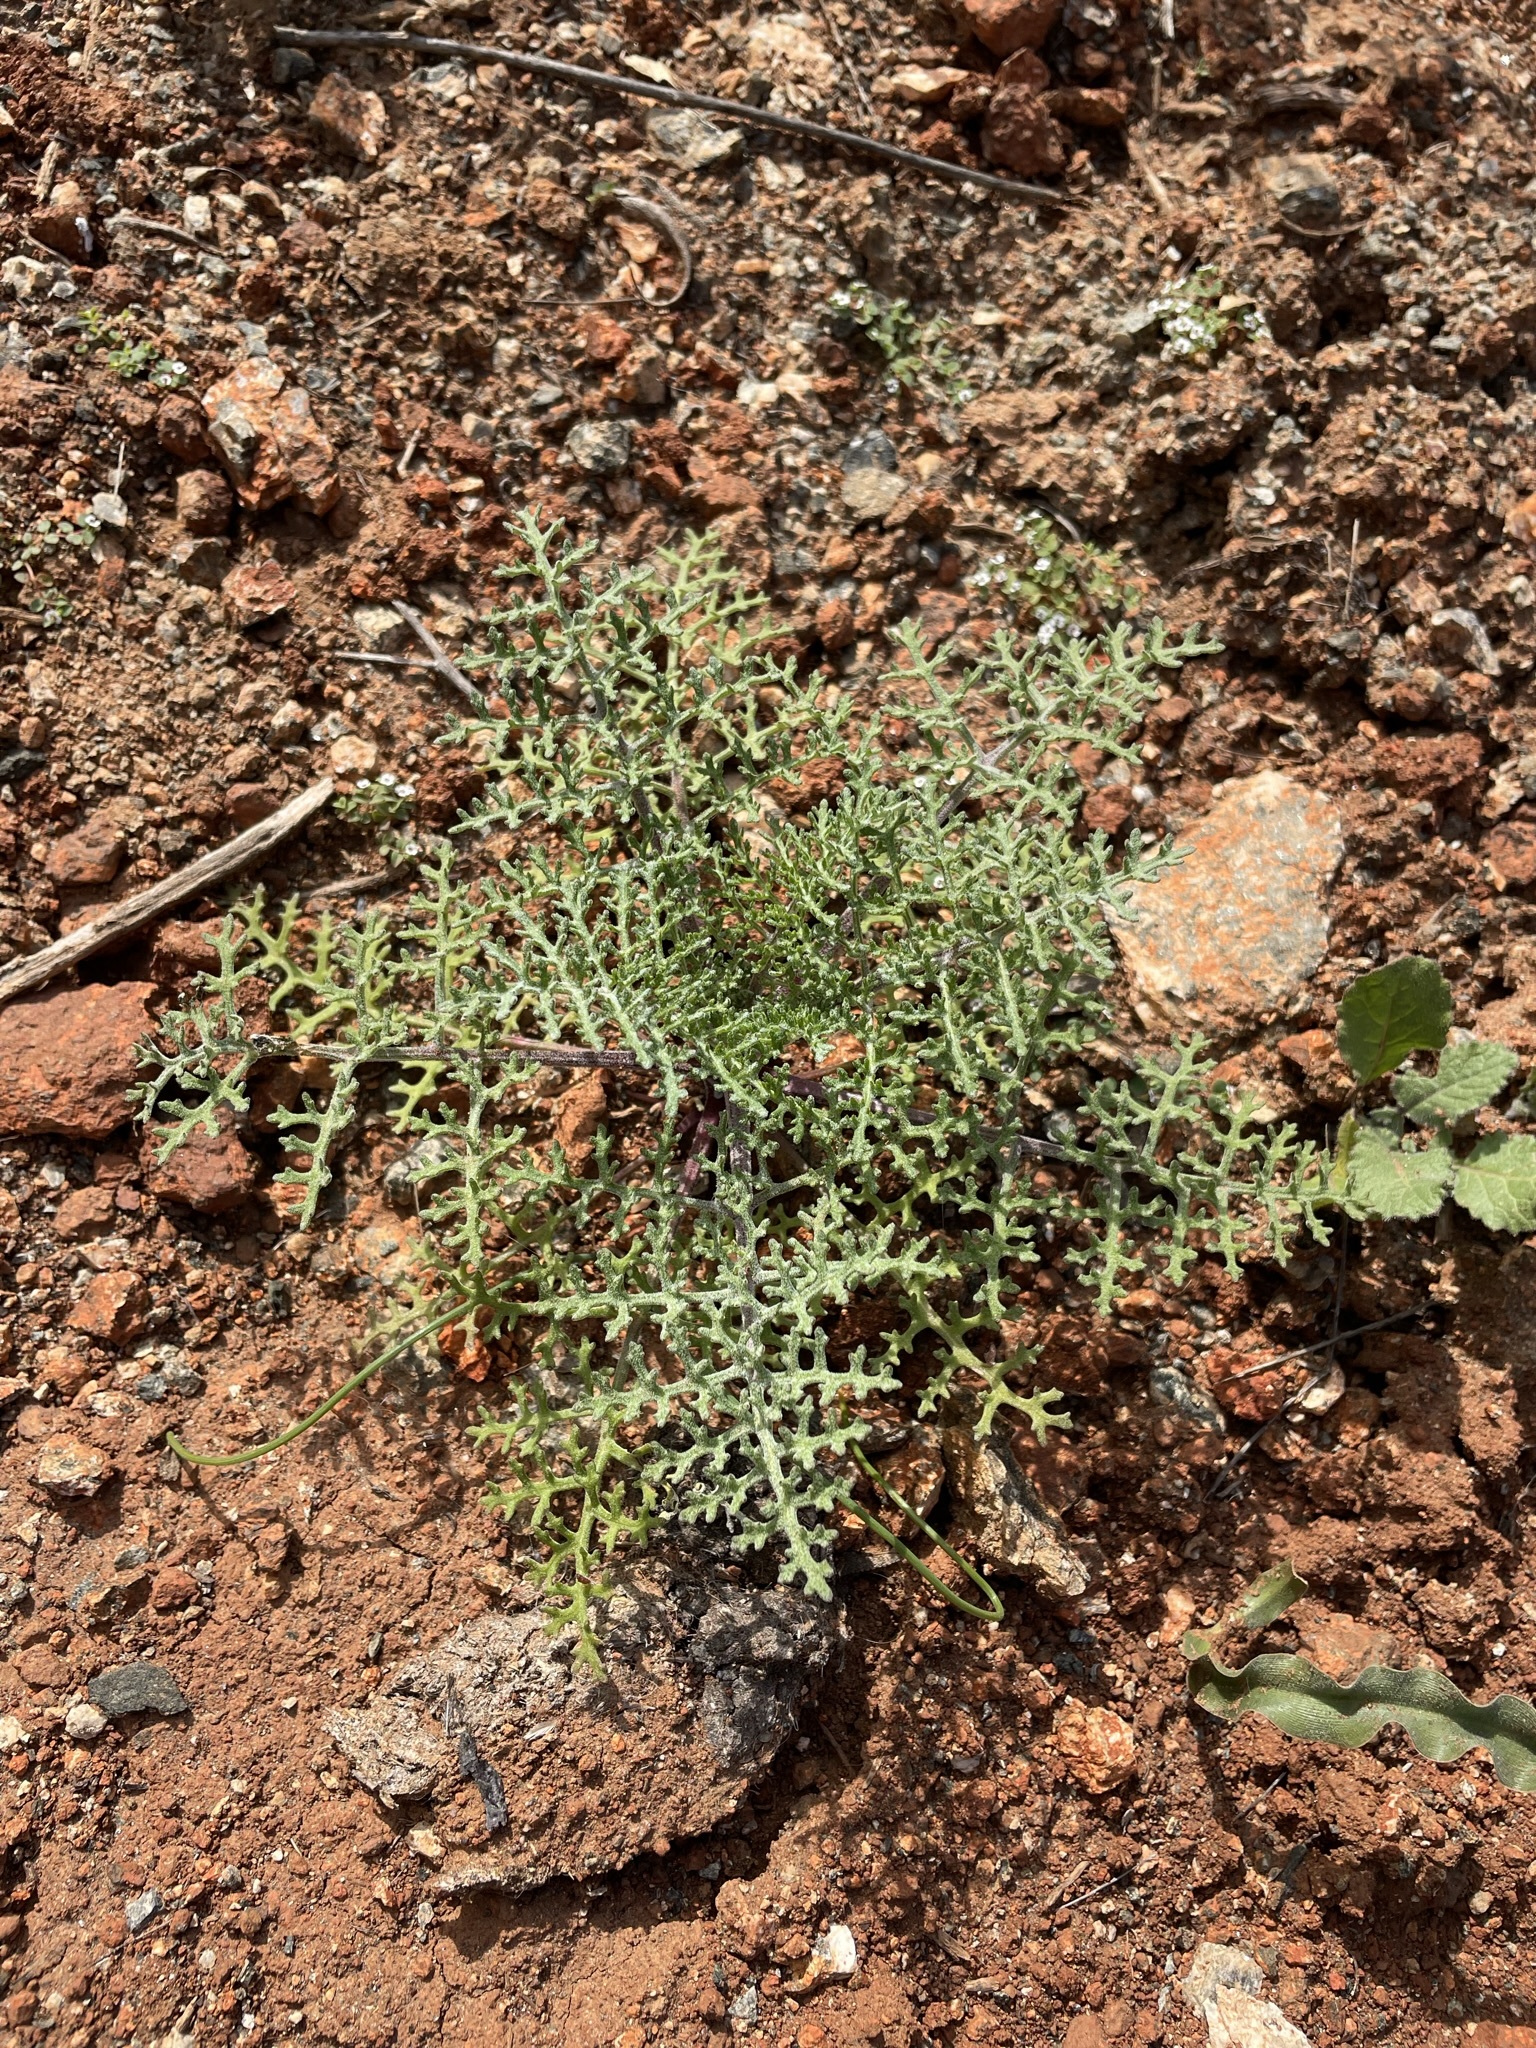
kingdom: Plantae
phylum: Tracheophyta
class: Magnoliopsida
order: Asterales
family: Asteraceae
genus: Chaenactis
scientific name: Chaenactis artemisiifolia
